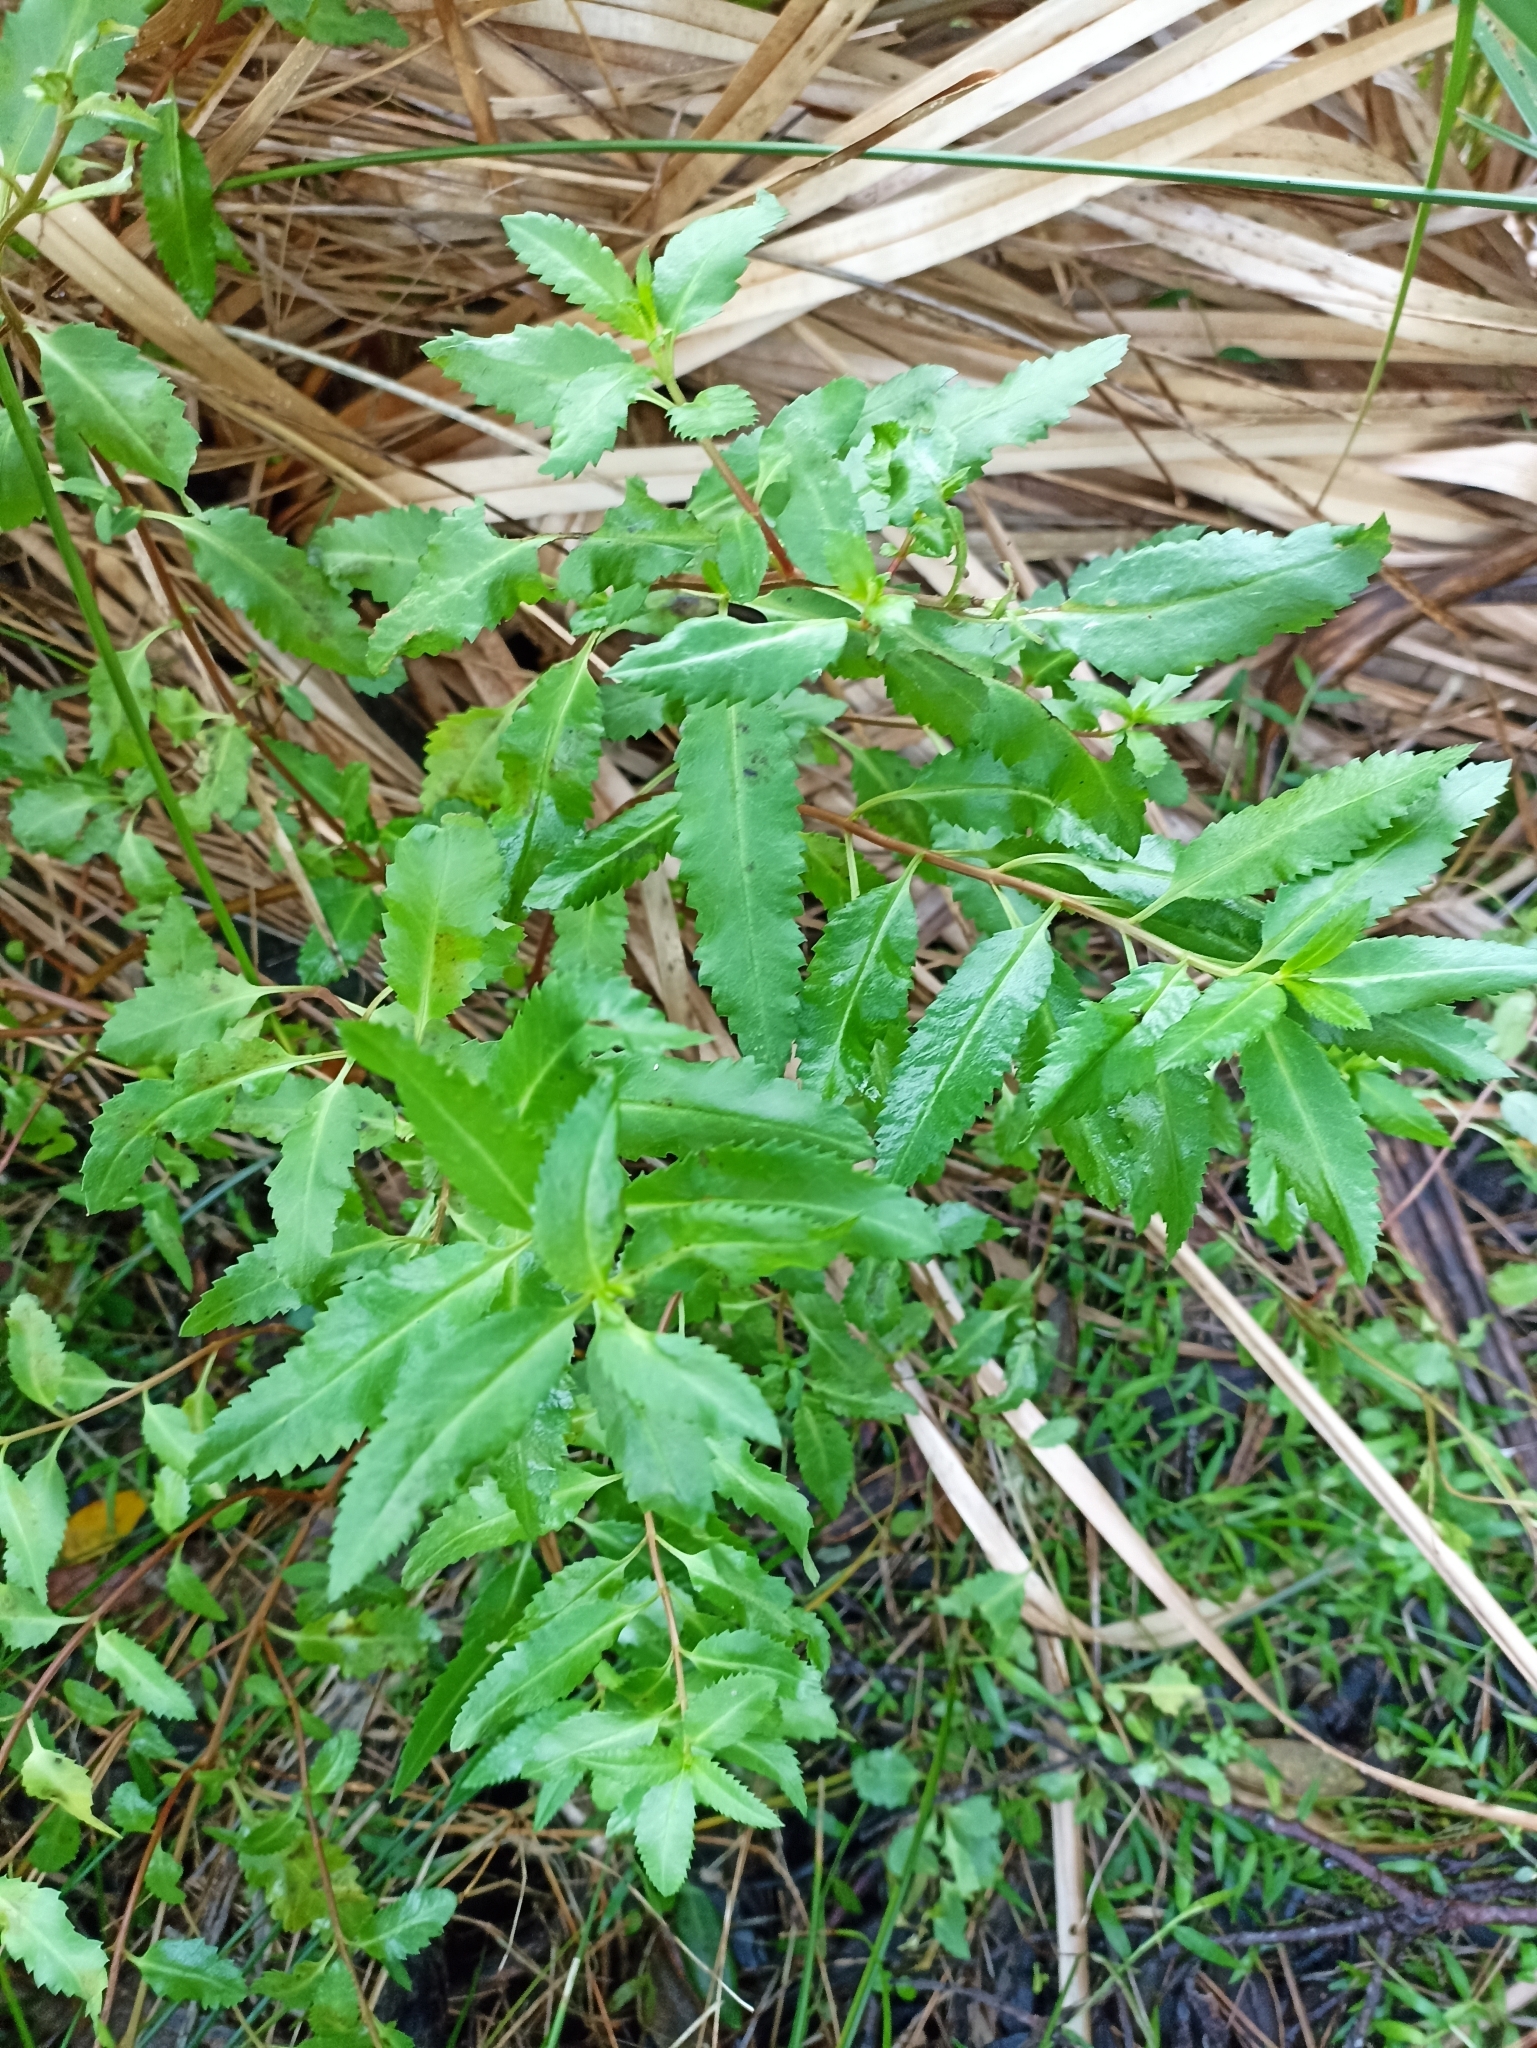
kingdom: Plantae
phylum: Tracheophyta
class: Magnoliopsida
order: Saxifragales
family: Haloragaceae
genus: Haloragis
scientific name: Haloragis erecta
